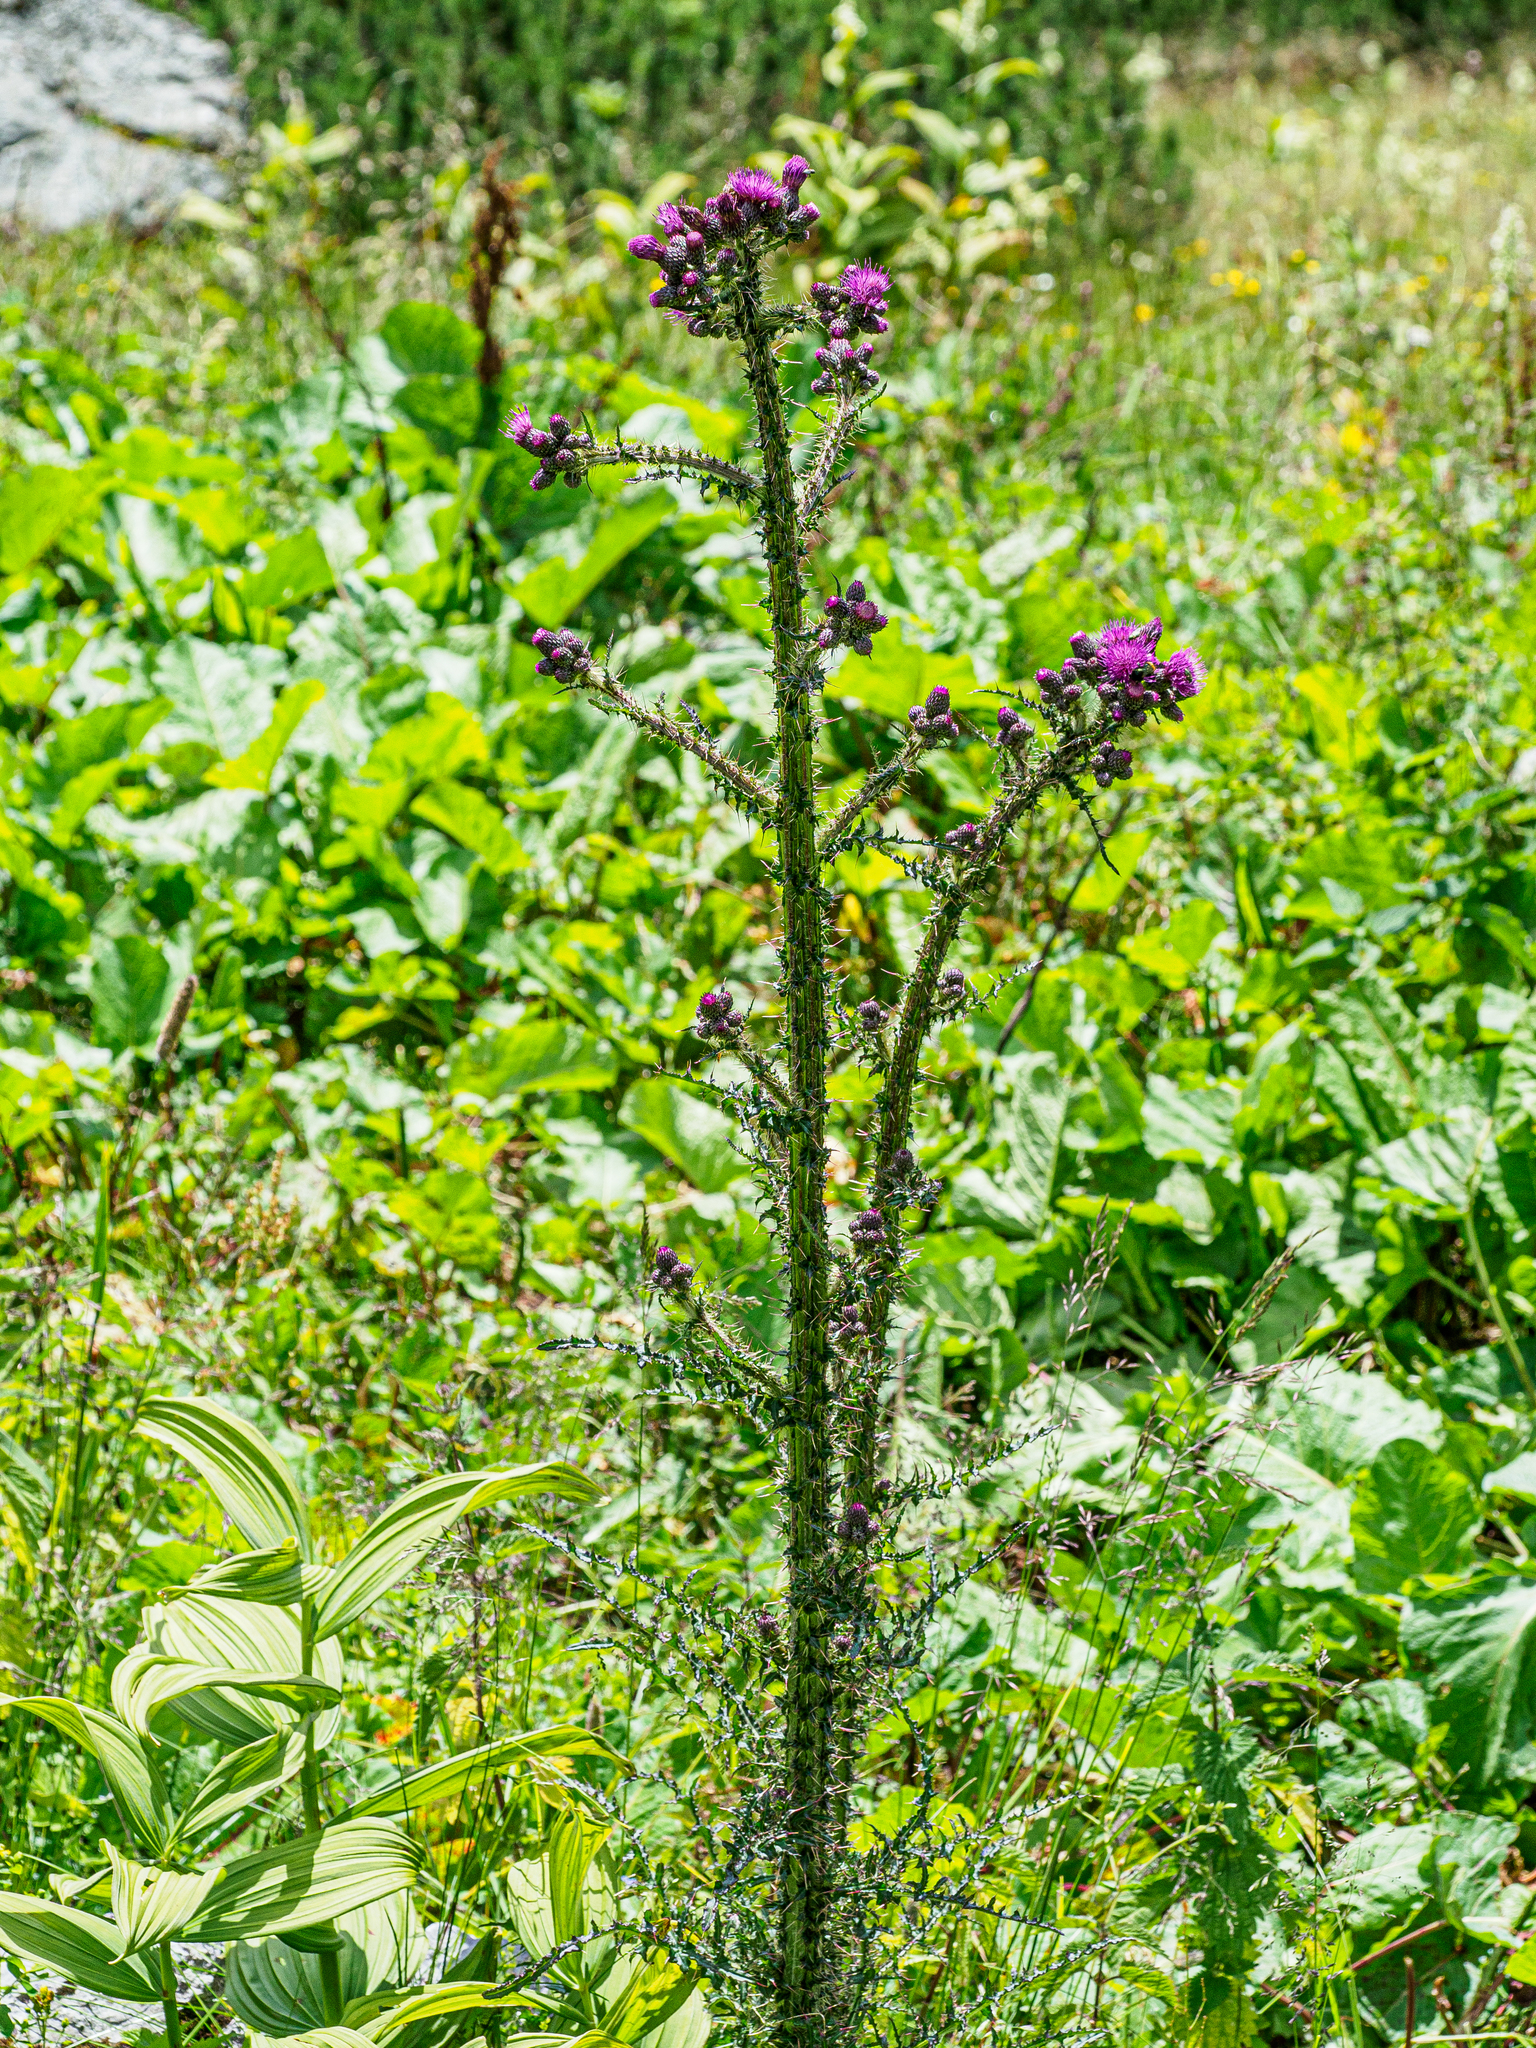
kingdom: Plantae
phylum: Tracheophyta
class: Magnoliopsida
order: Asterales
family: Asteraceae
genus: Cirsium
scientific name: Cirsium palustre
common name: Marsh thistle
